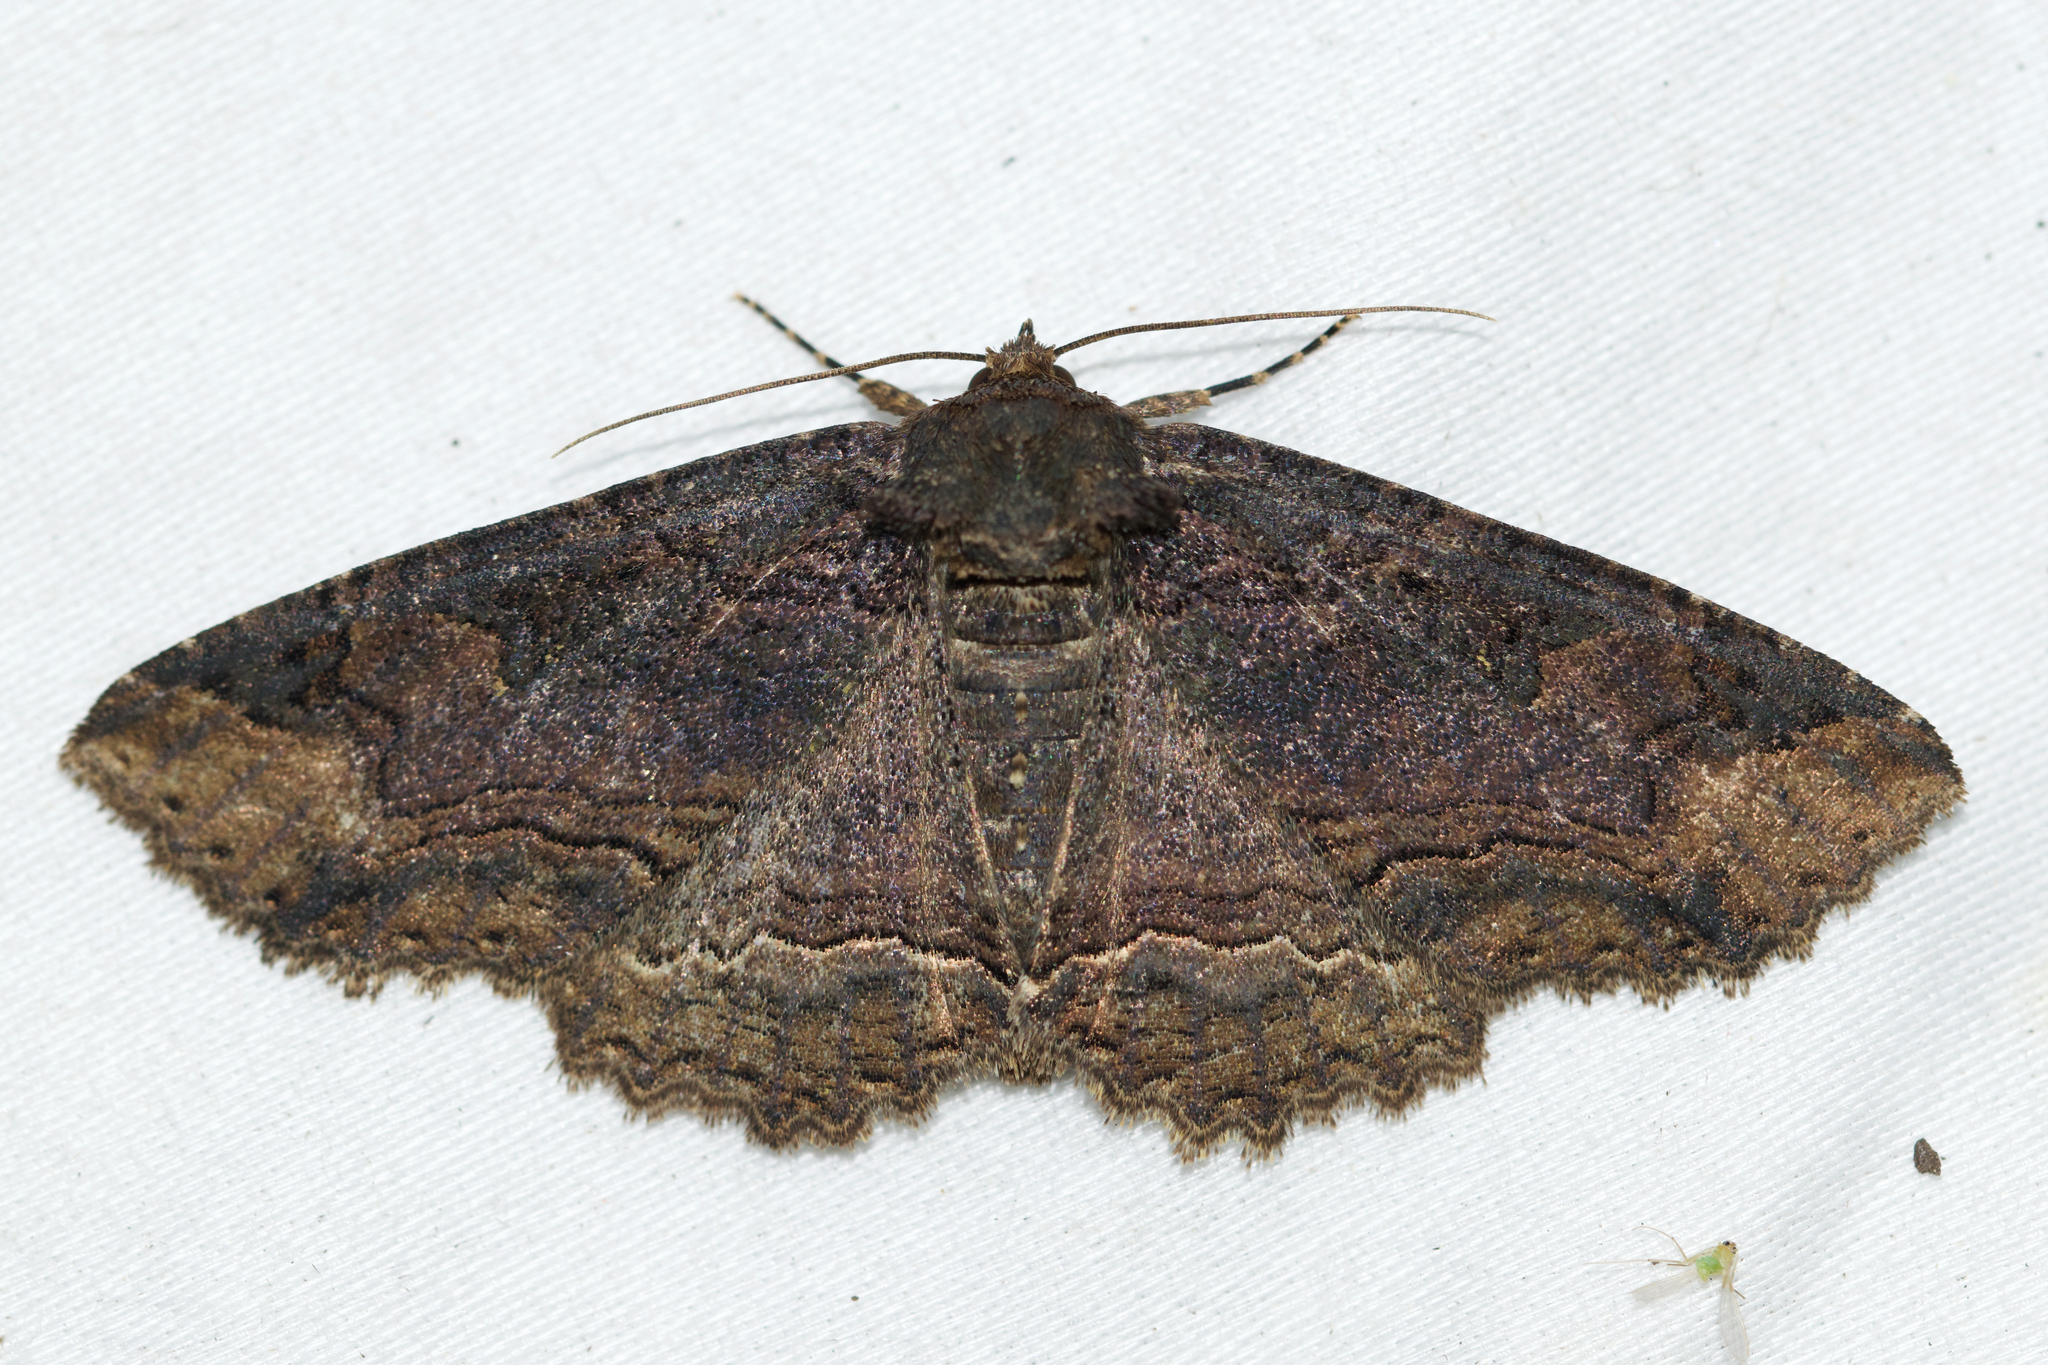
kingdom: Animalia
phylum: Arthropoda
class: Insecta
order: Lepidoptera
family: Erebidae
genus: Zale
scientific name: Zale minerea
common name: Colorful zale moth
